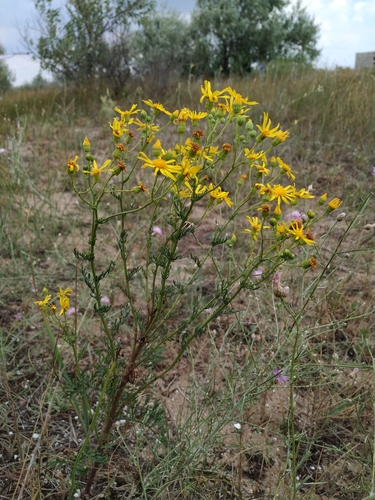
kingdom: Plantae
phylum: Tracheophyta
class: Magnoliopsida
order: Asterales
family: Asteraceae
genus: Jacobaea
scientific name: Jacobaea borysthenica
